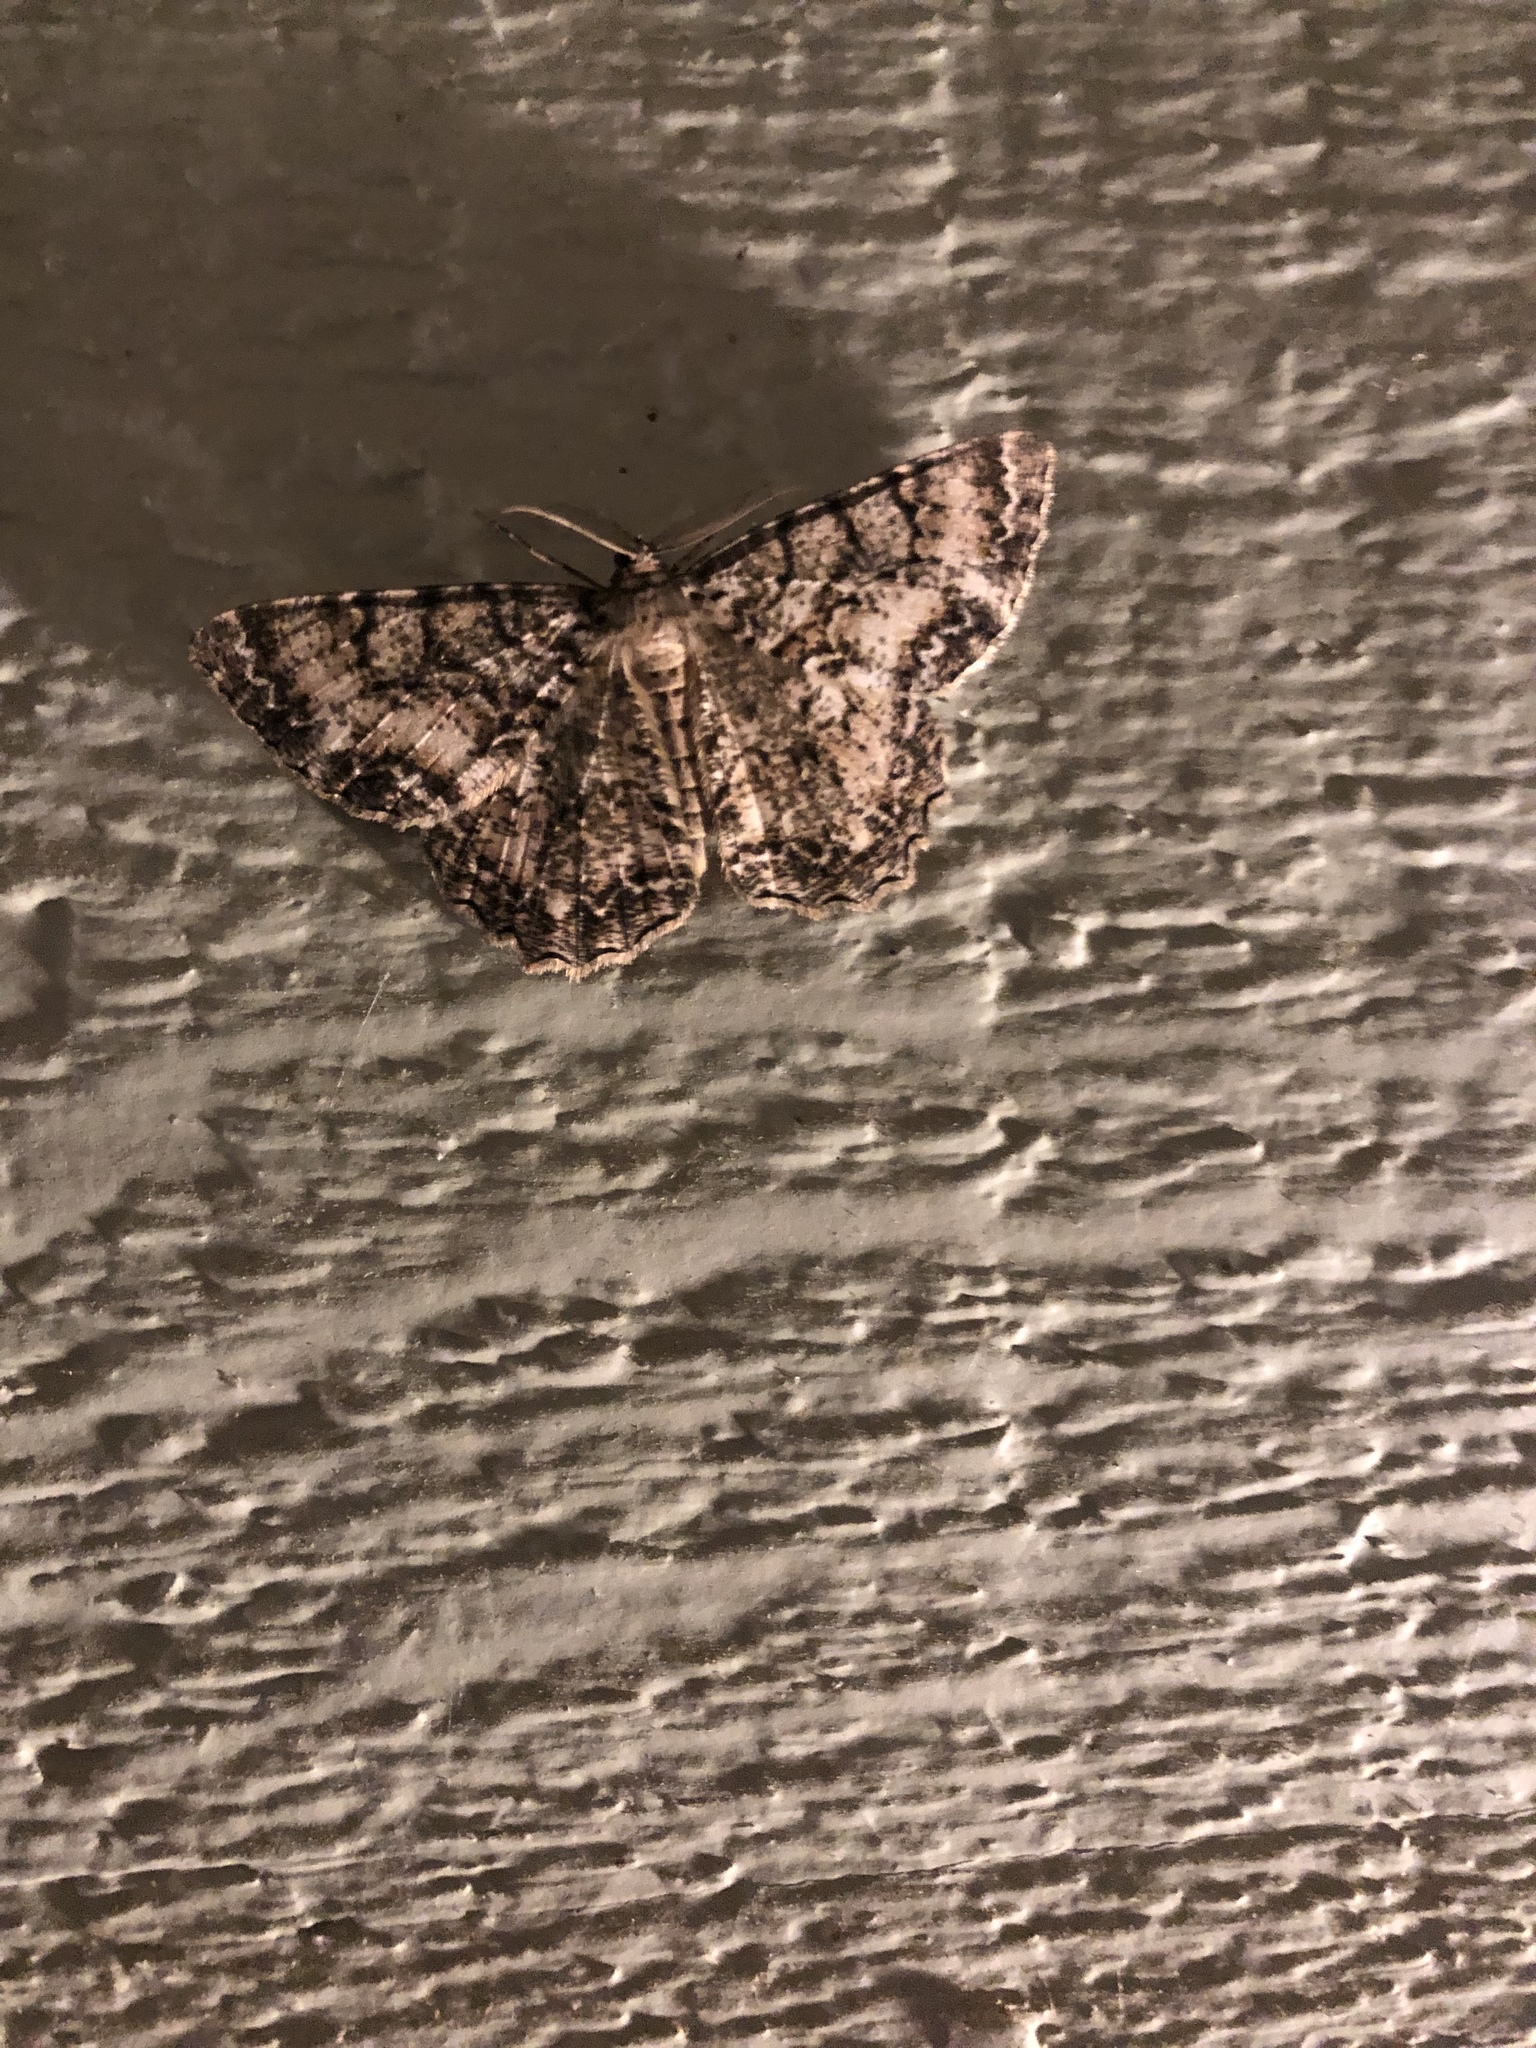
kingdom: Animalia
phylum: Arthropoda
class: Insecta
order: Lepidoptera
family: Geometridae
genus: Epimecis
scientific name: Epimecis hortaria
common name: Tulip-tree beauty
